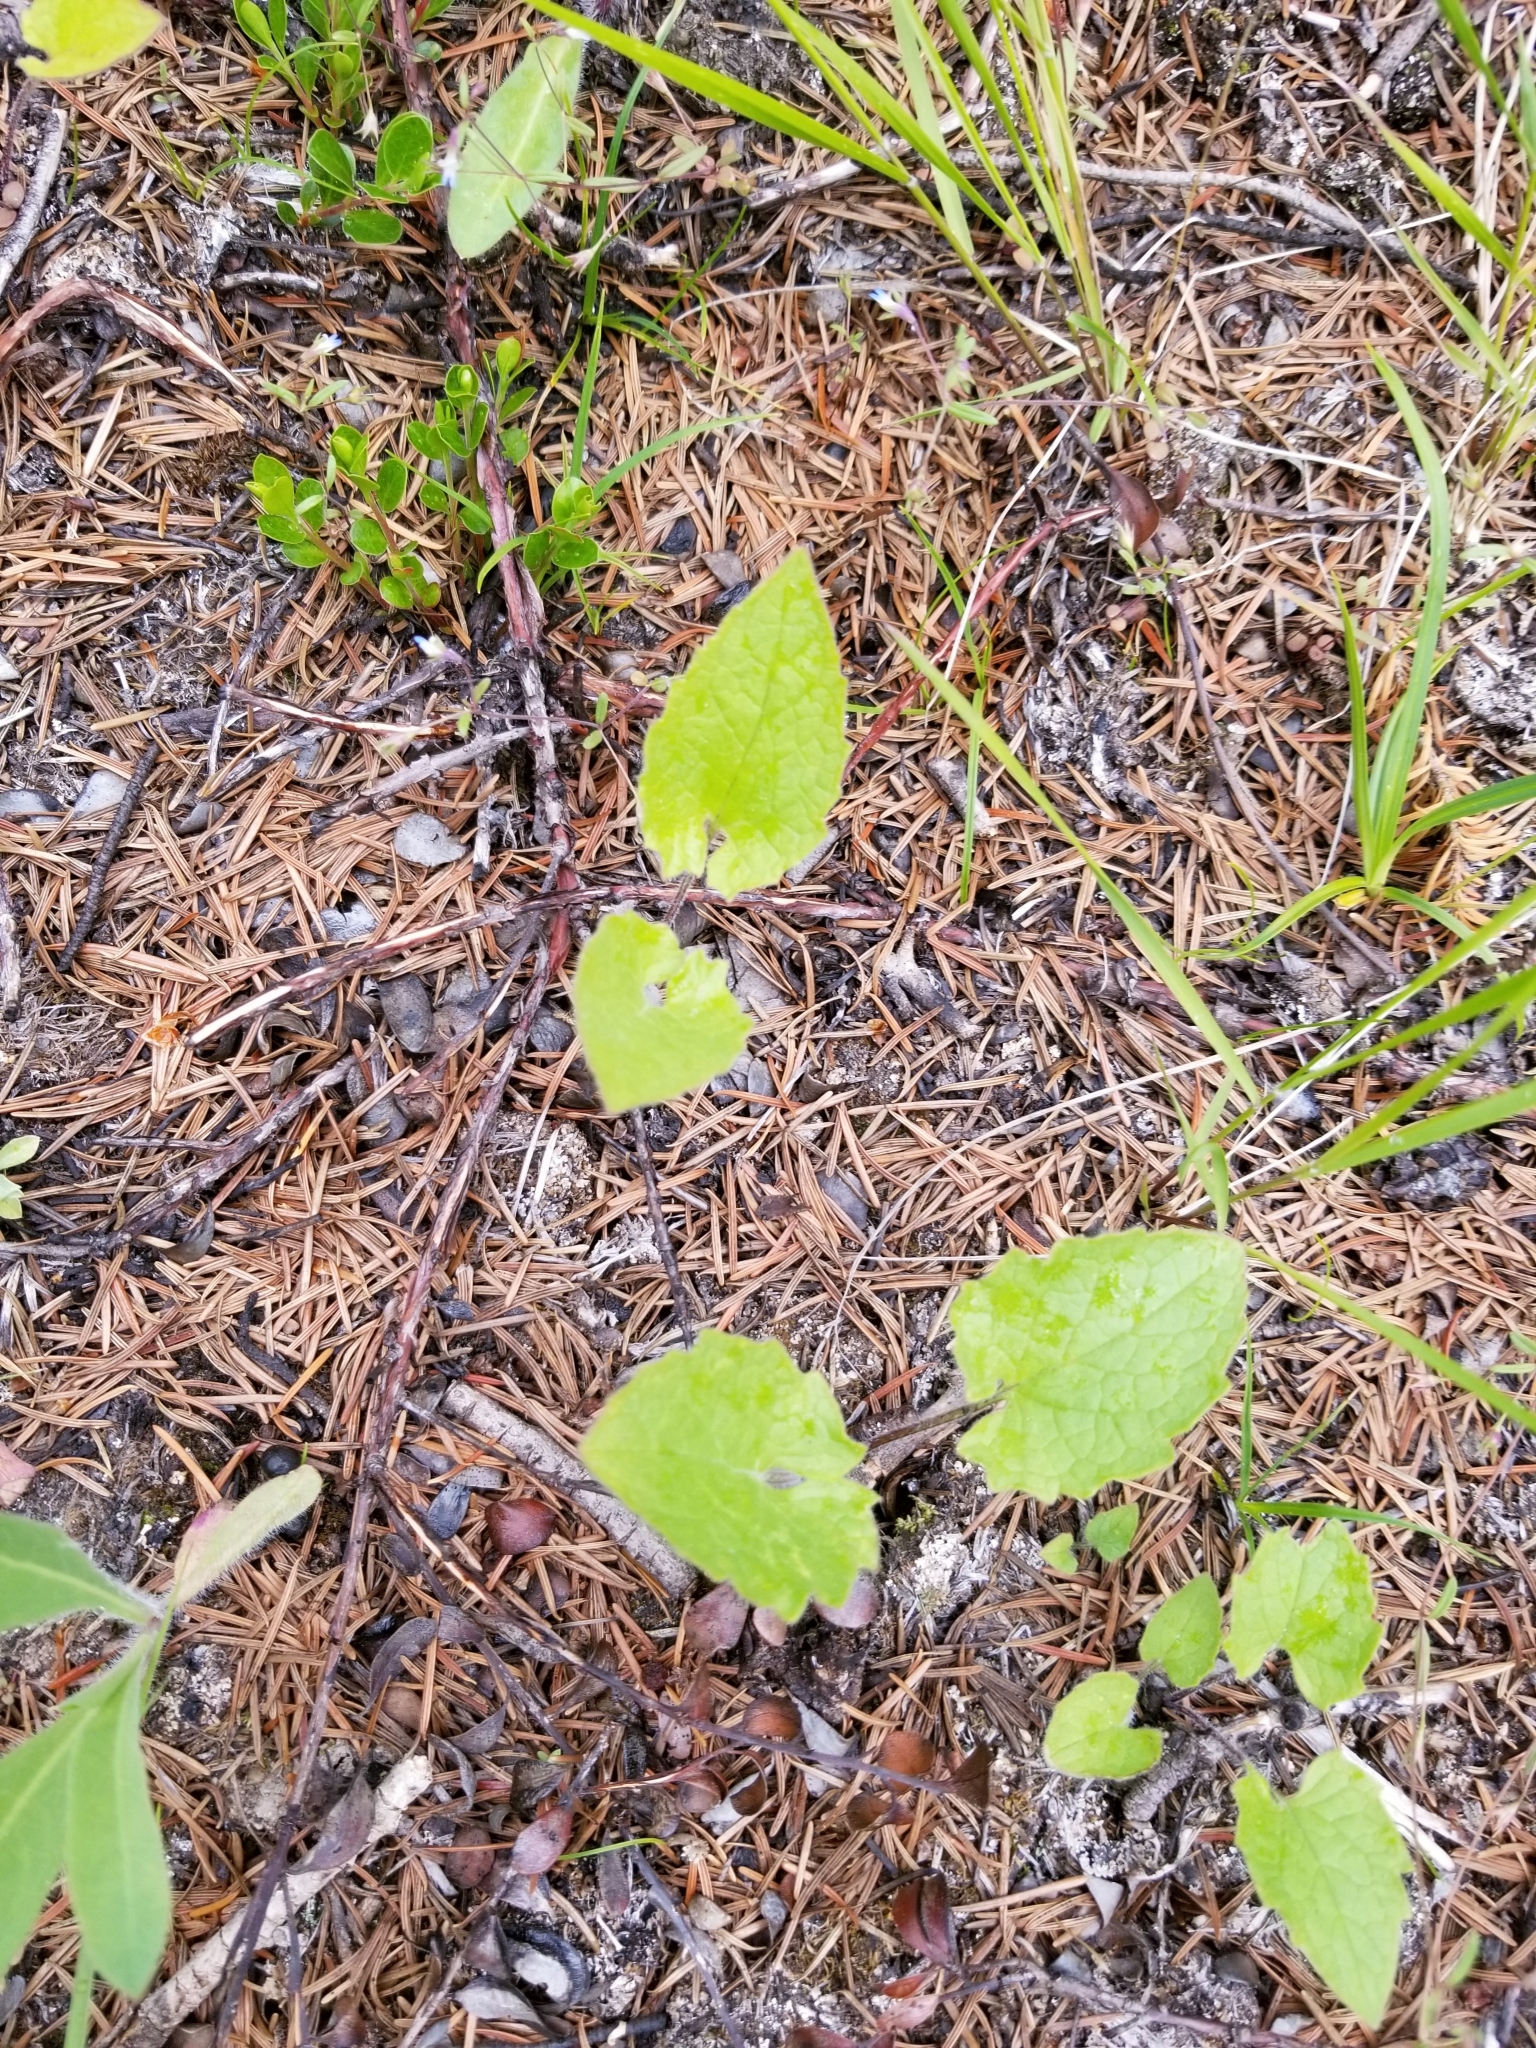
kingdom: Plantae
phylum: Tracheophyta
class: Magnoliopsida
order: Asterales
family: Asteraceae
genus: Arnica
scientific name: Arnica cordifolia
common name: Heart-leaf arnica
